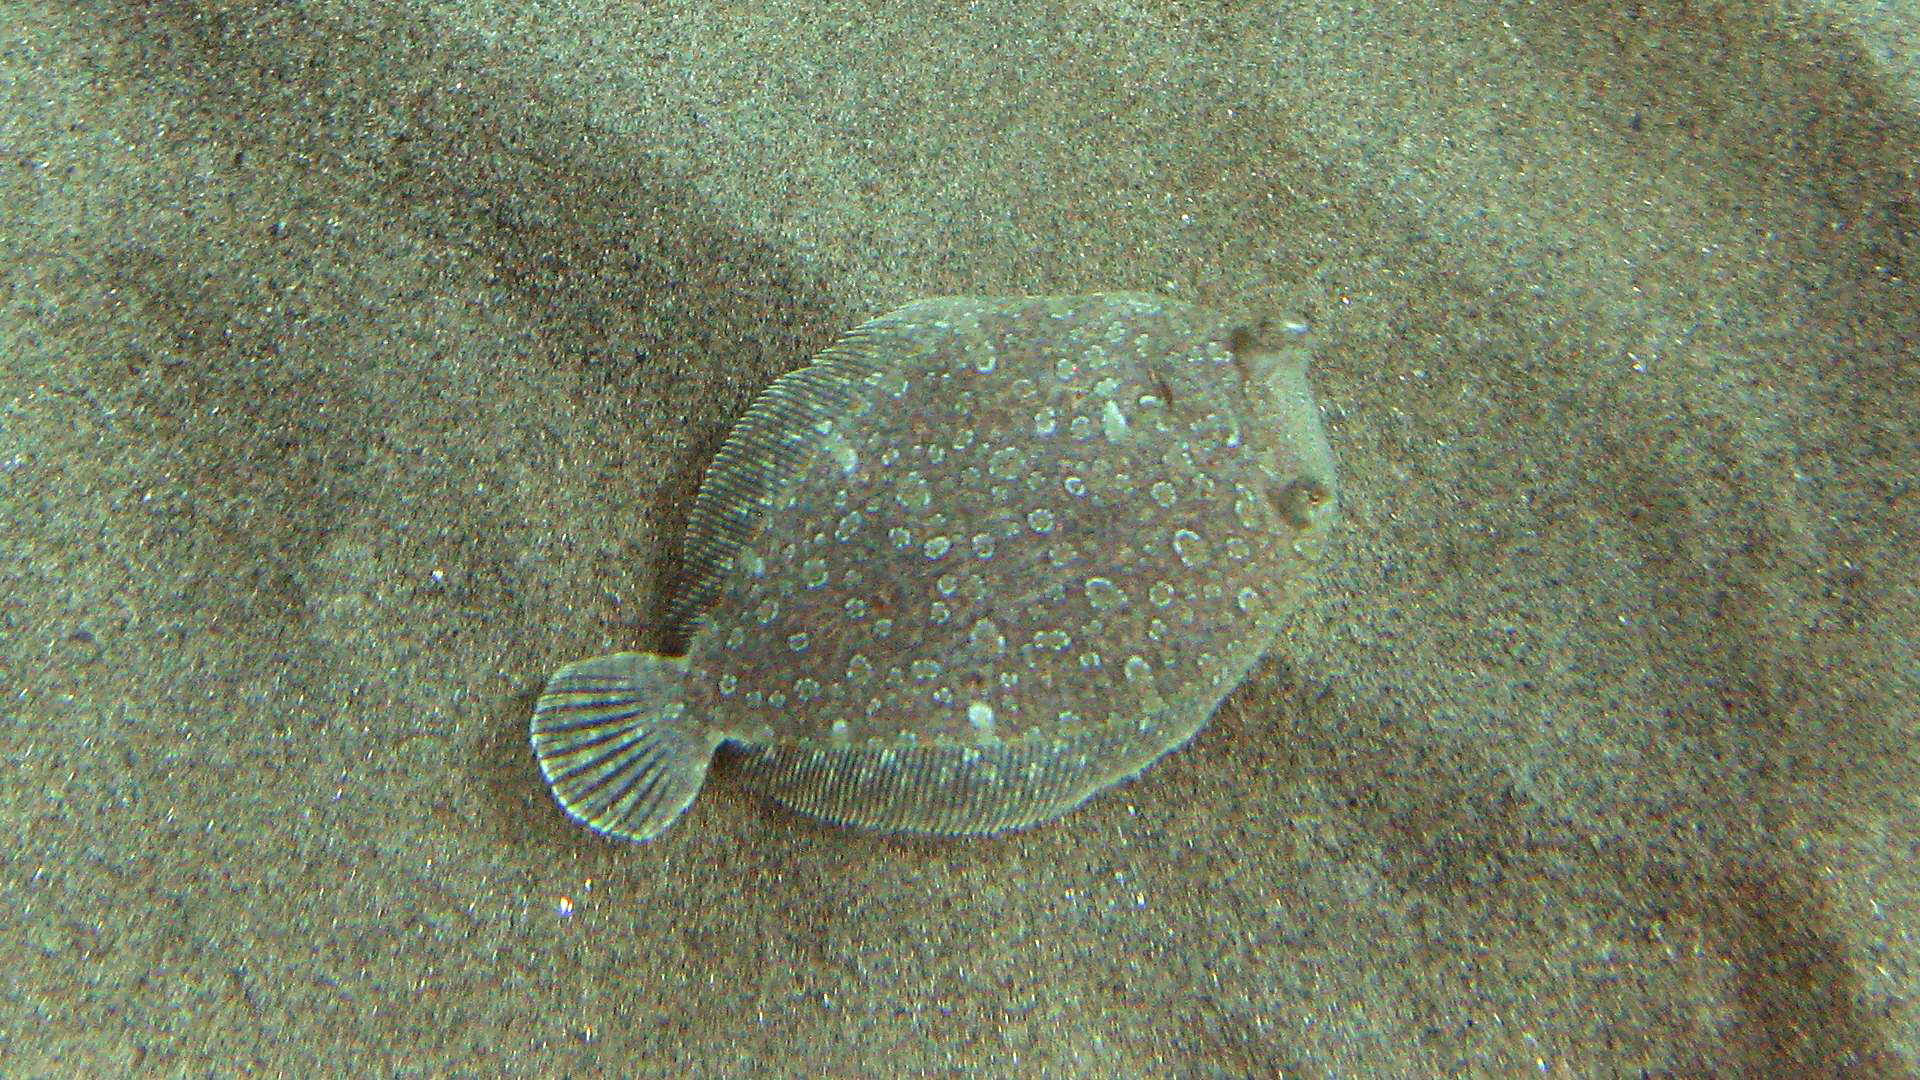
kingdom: Animalia
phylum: Chordata
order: Pleuronectiformes
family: Bothidae
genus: Bothus
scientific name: Bothus podas
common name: Wide-eyed flounder
